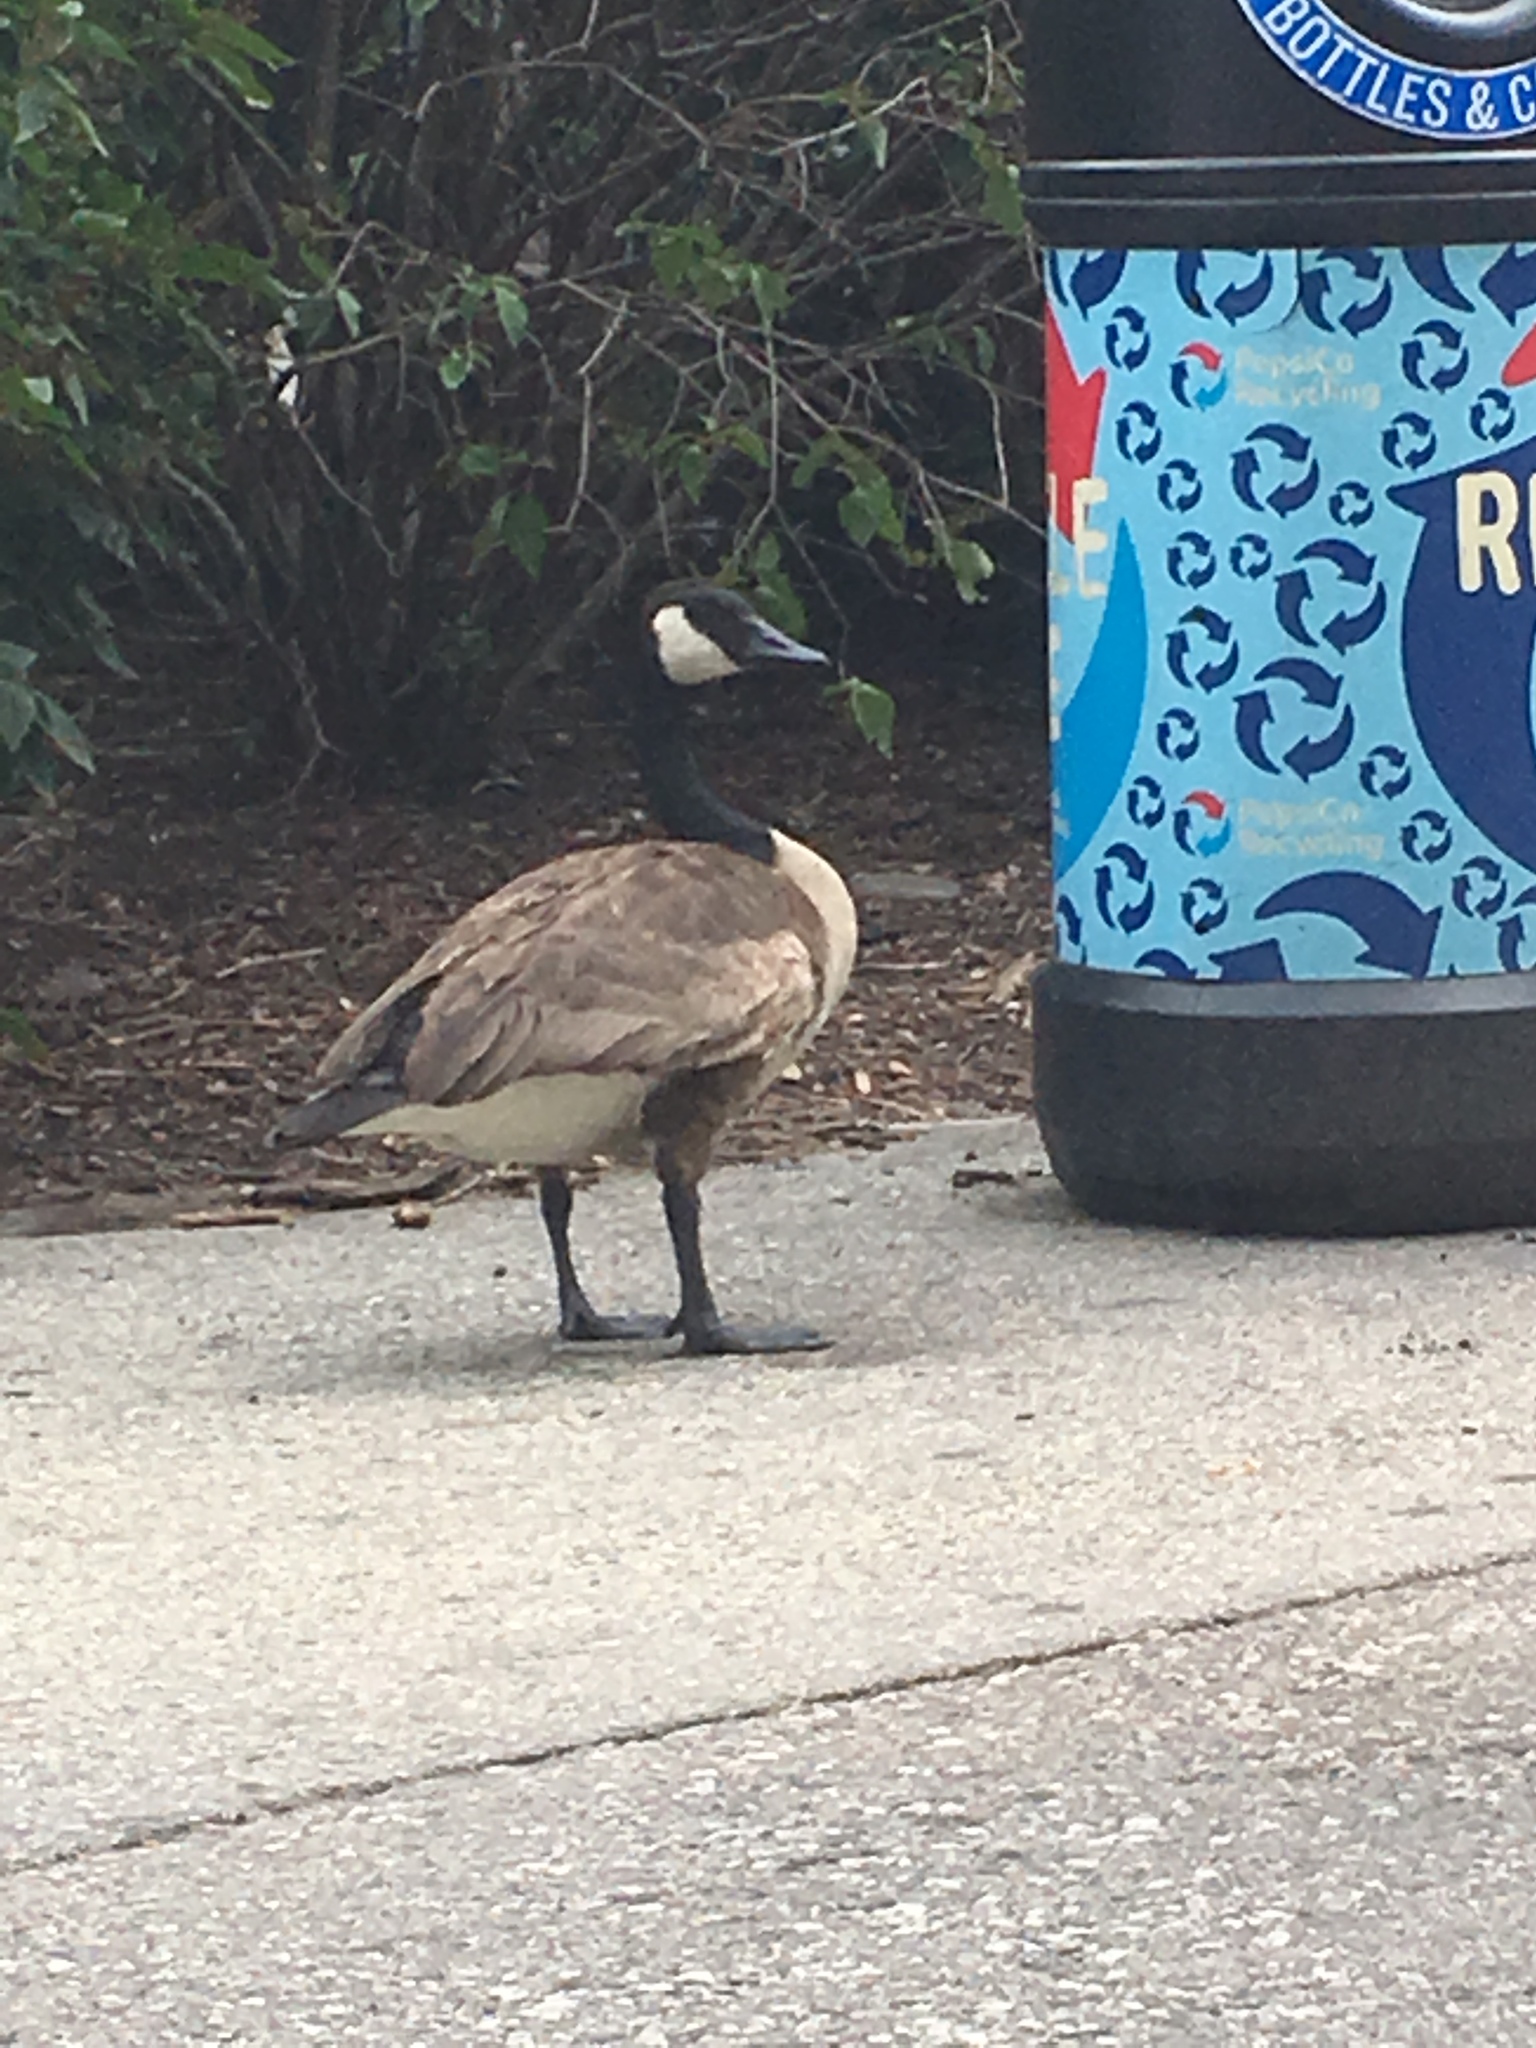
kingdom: Animalia
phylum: Chordata
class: Aves
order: Anseriformes
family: Anatidae
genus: Branta
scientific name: Branta canadensis
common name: Canada goose
